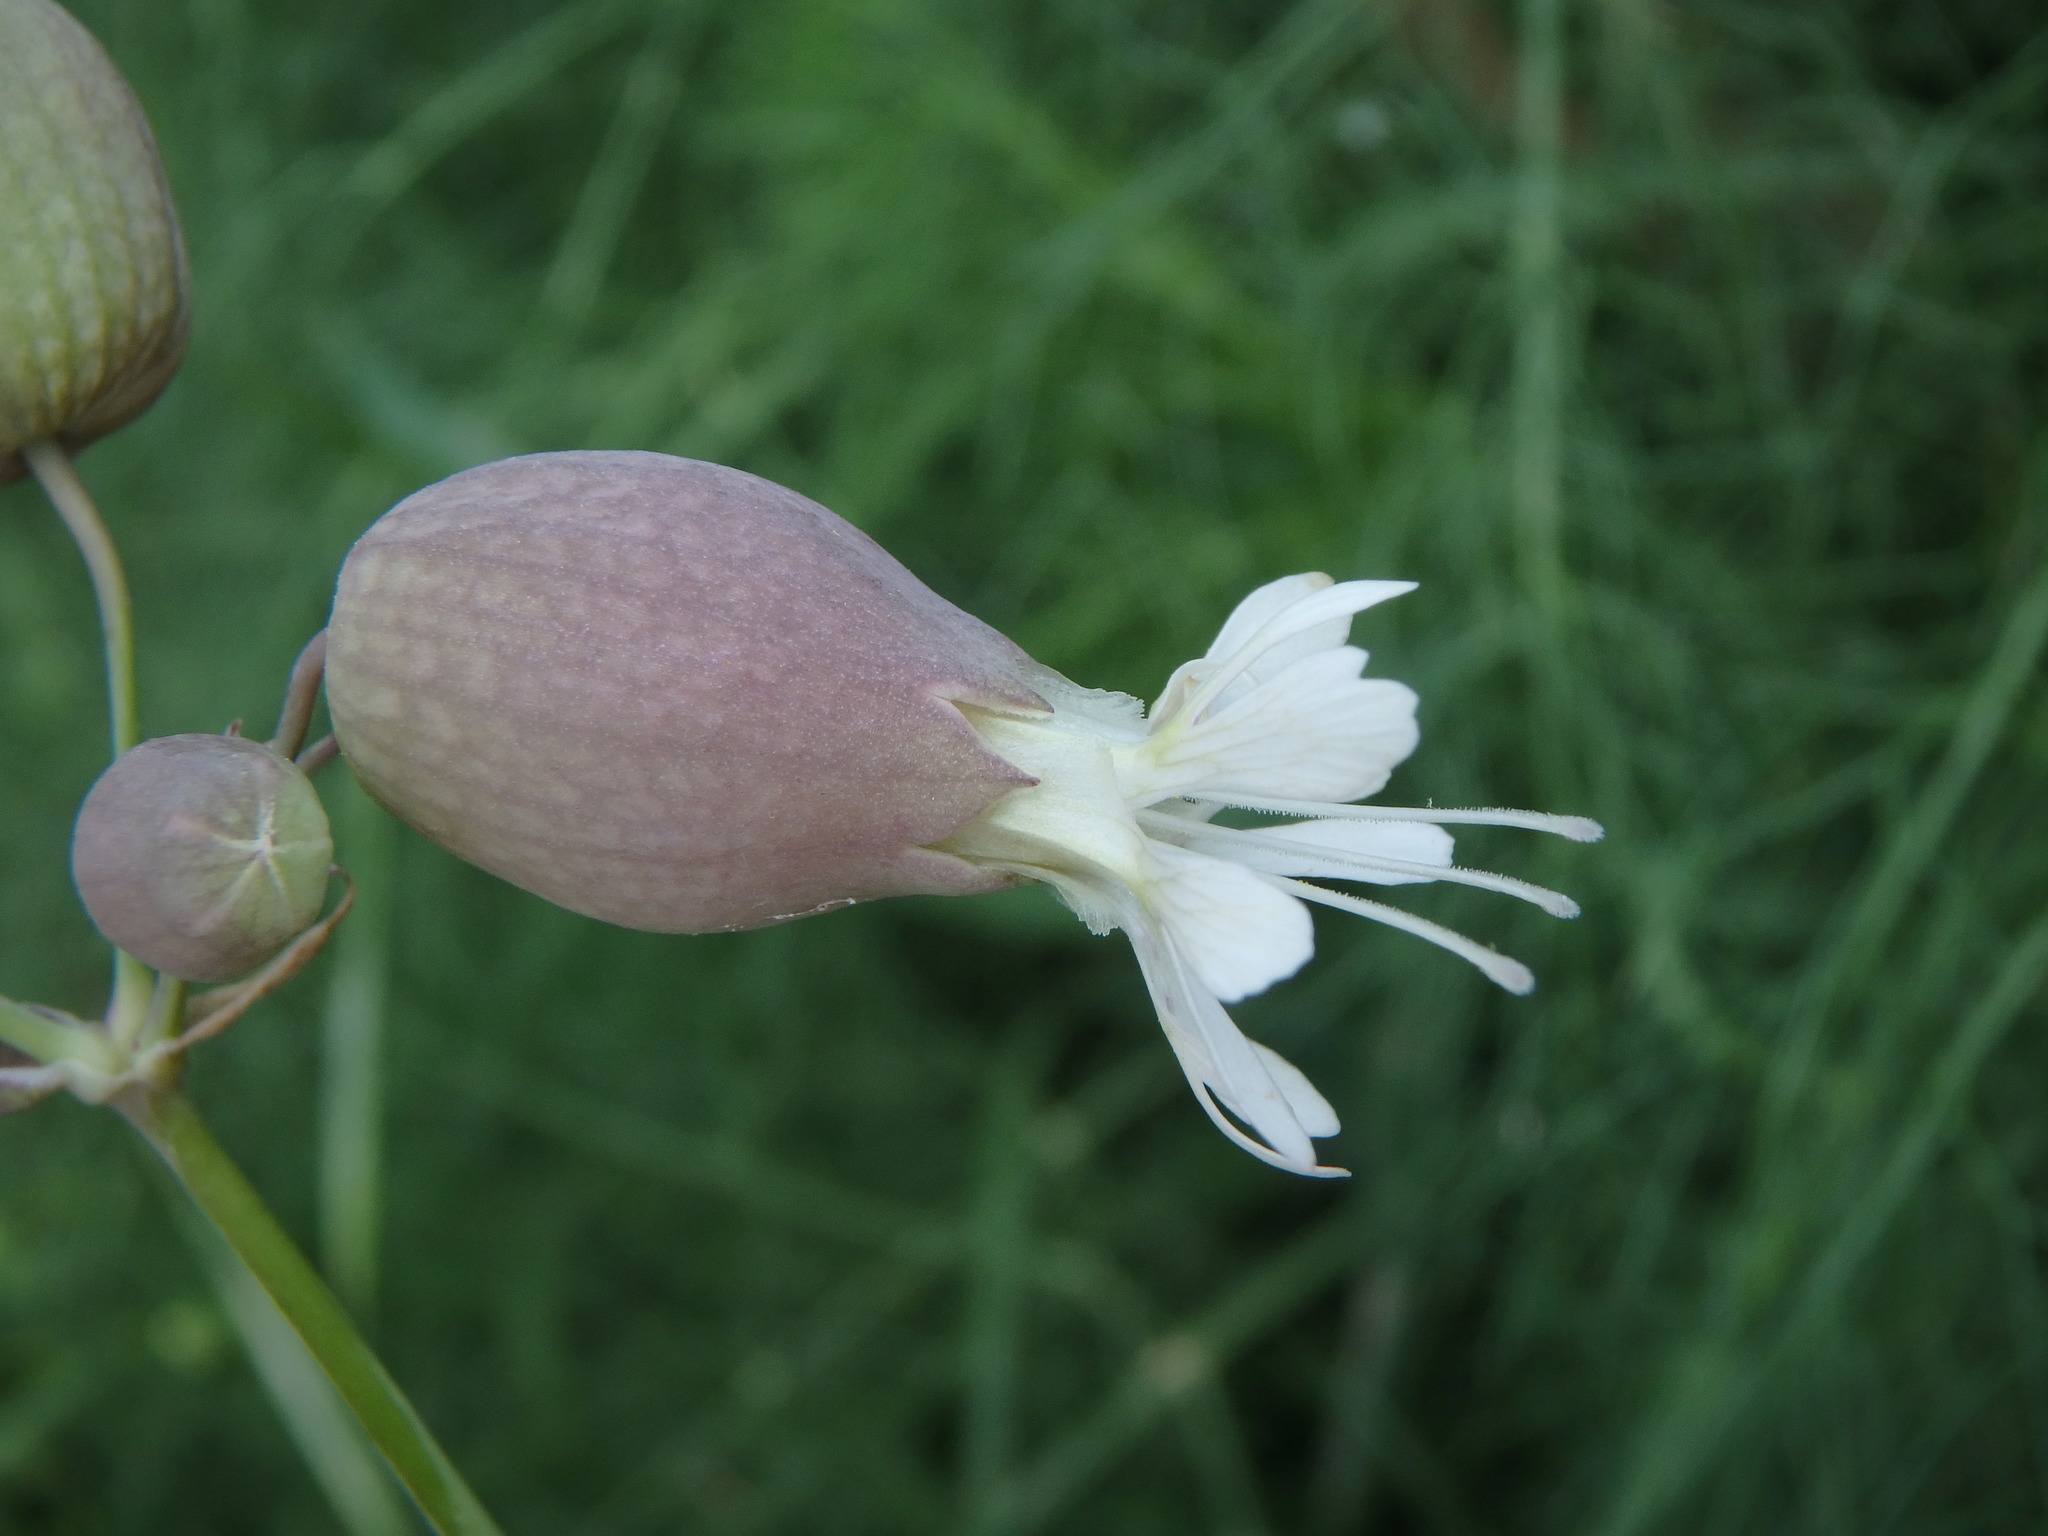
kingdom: Plantae
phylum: Tracheophyta
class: Magnoliopsida
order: Caryophyllales
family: Caryophyllaceae
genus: Silene
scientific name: Silene vulgaris
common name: Bladder campion
